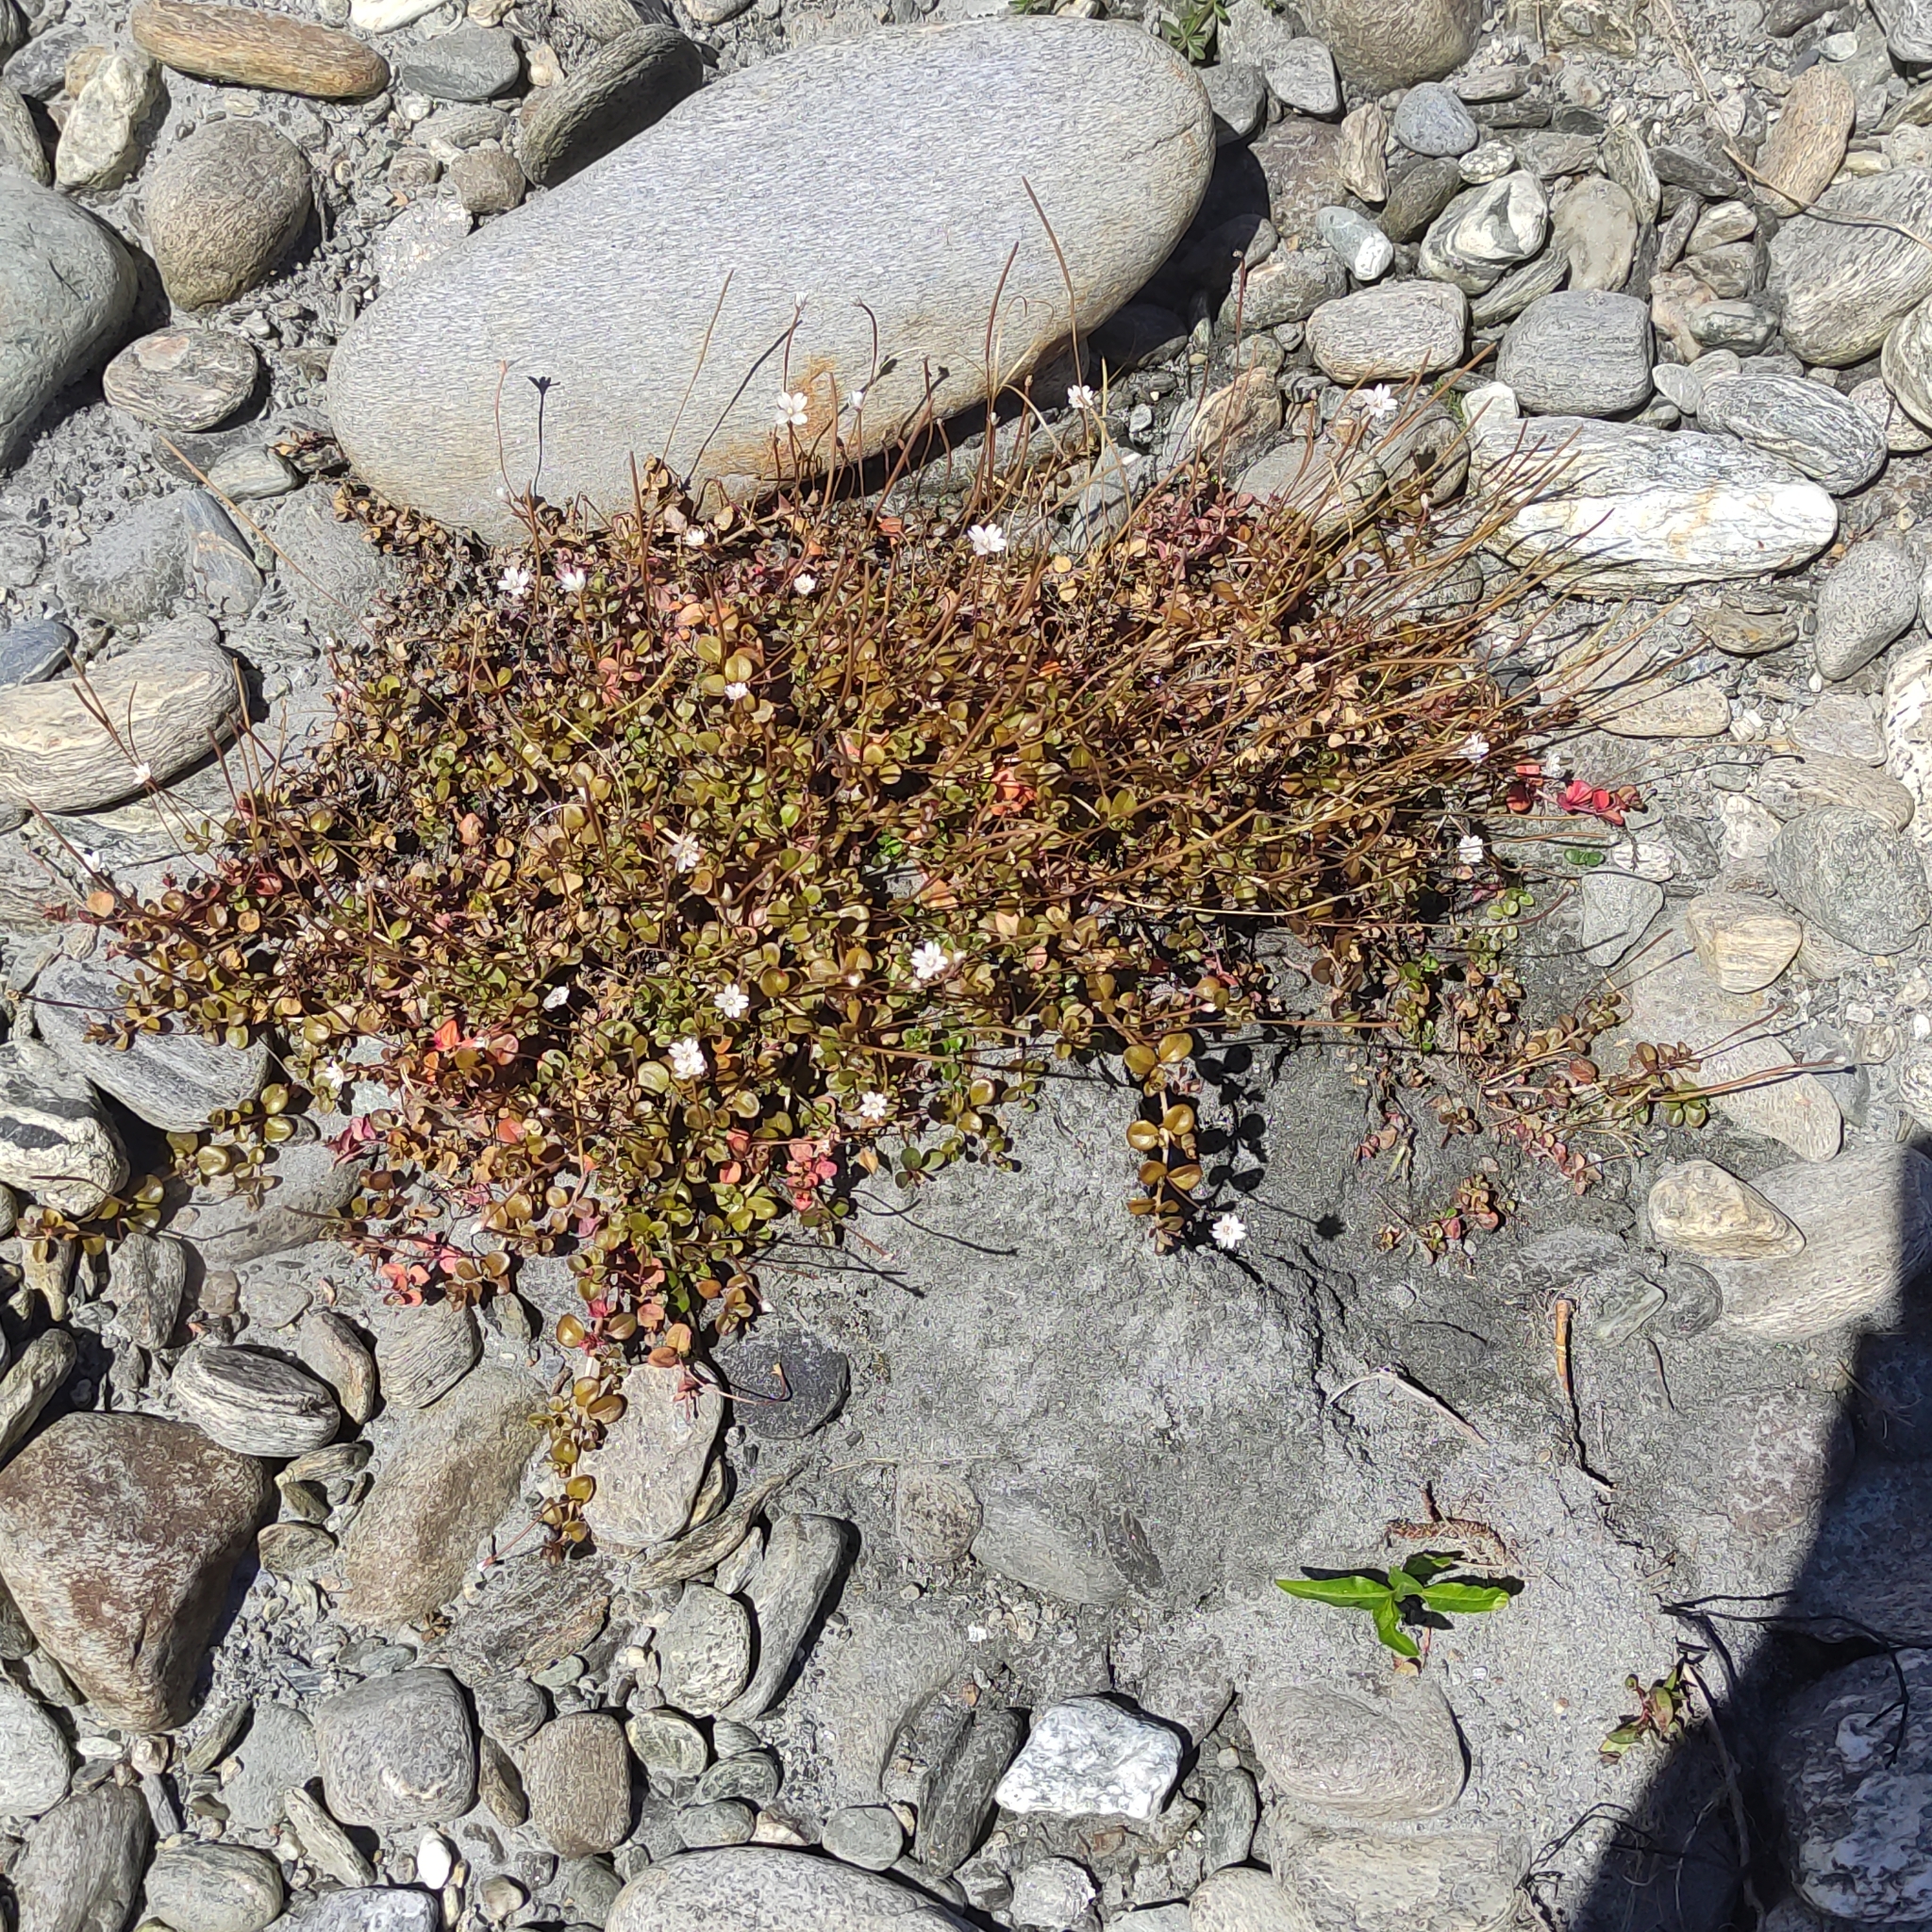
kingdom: Plantae
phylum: Tracheophyta
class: Magnoliopsida
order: Myrtales
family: Onagraceae
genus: Epilobium
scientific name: Epilobium brunnescens
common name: New zealand willowherb
